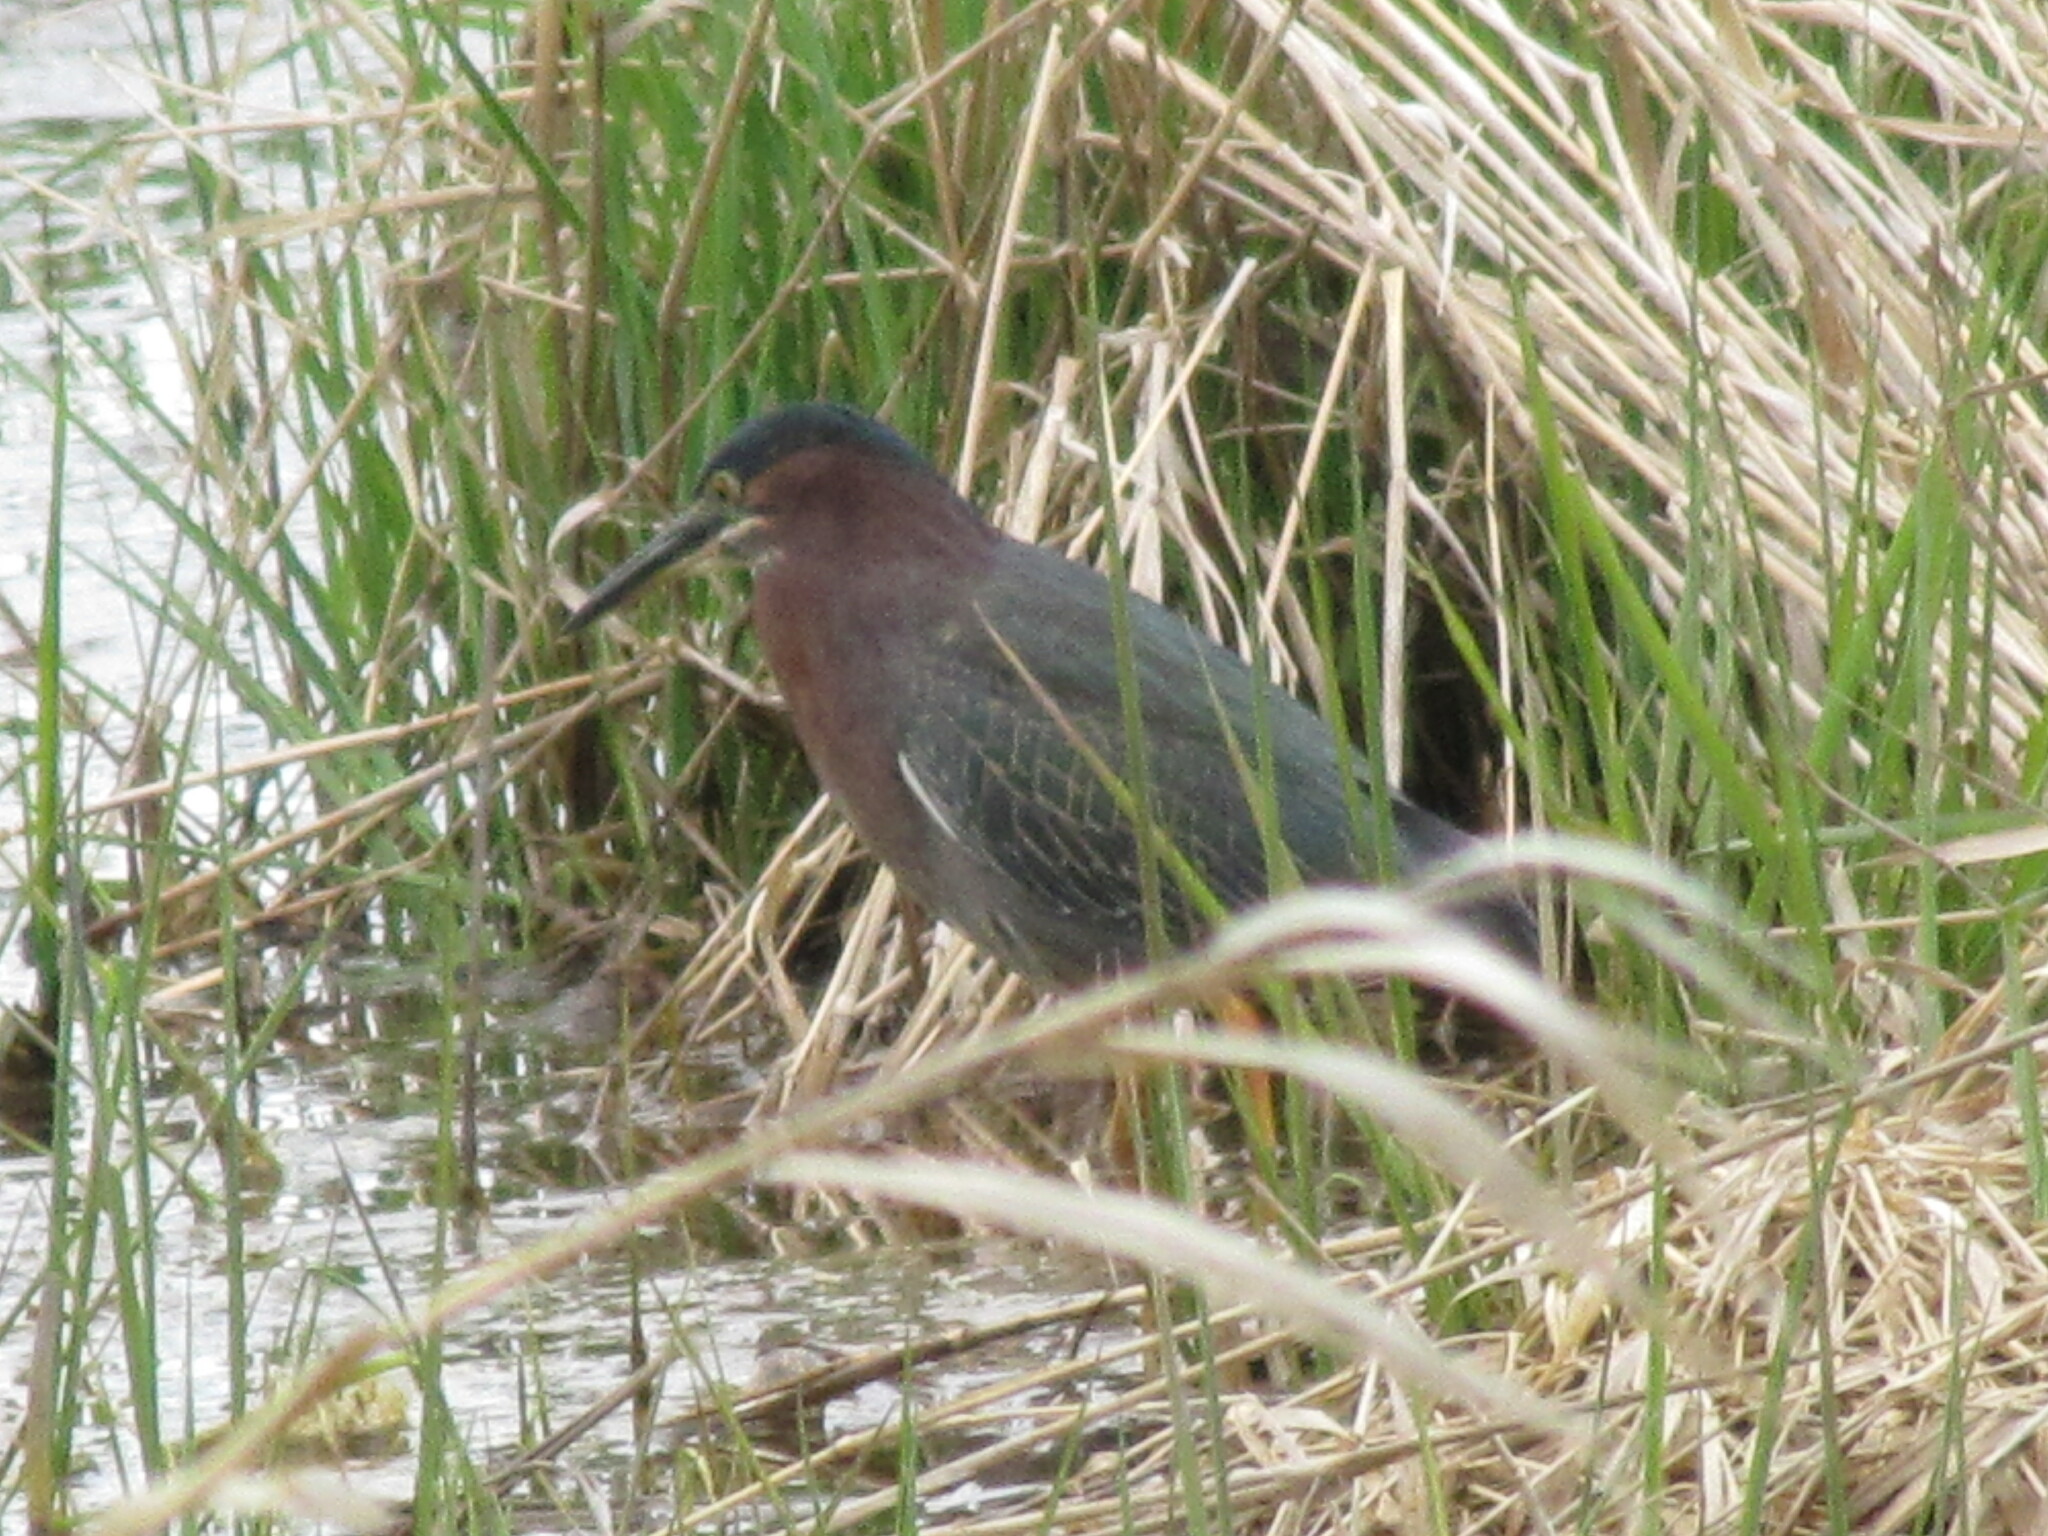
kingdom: Animalia
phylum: Chordata
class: Aves
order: Pelecaniformes
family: Ardeidae
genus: Butorides
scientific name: Butorides virescens
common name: Green heron
